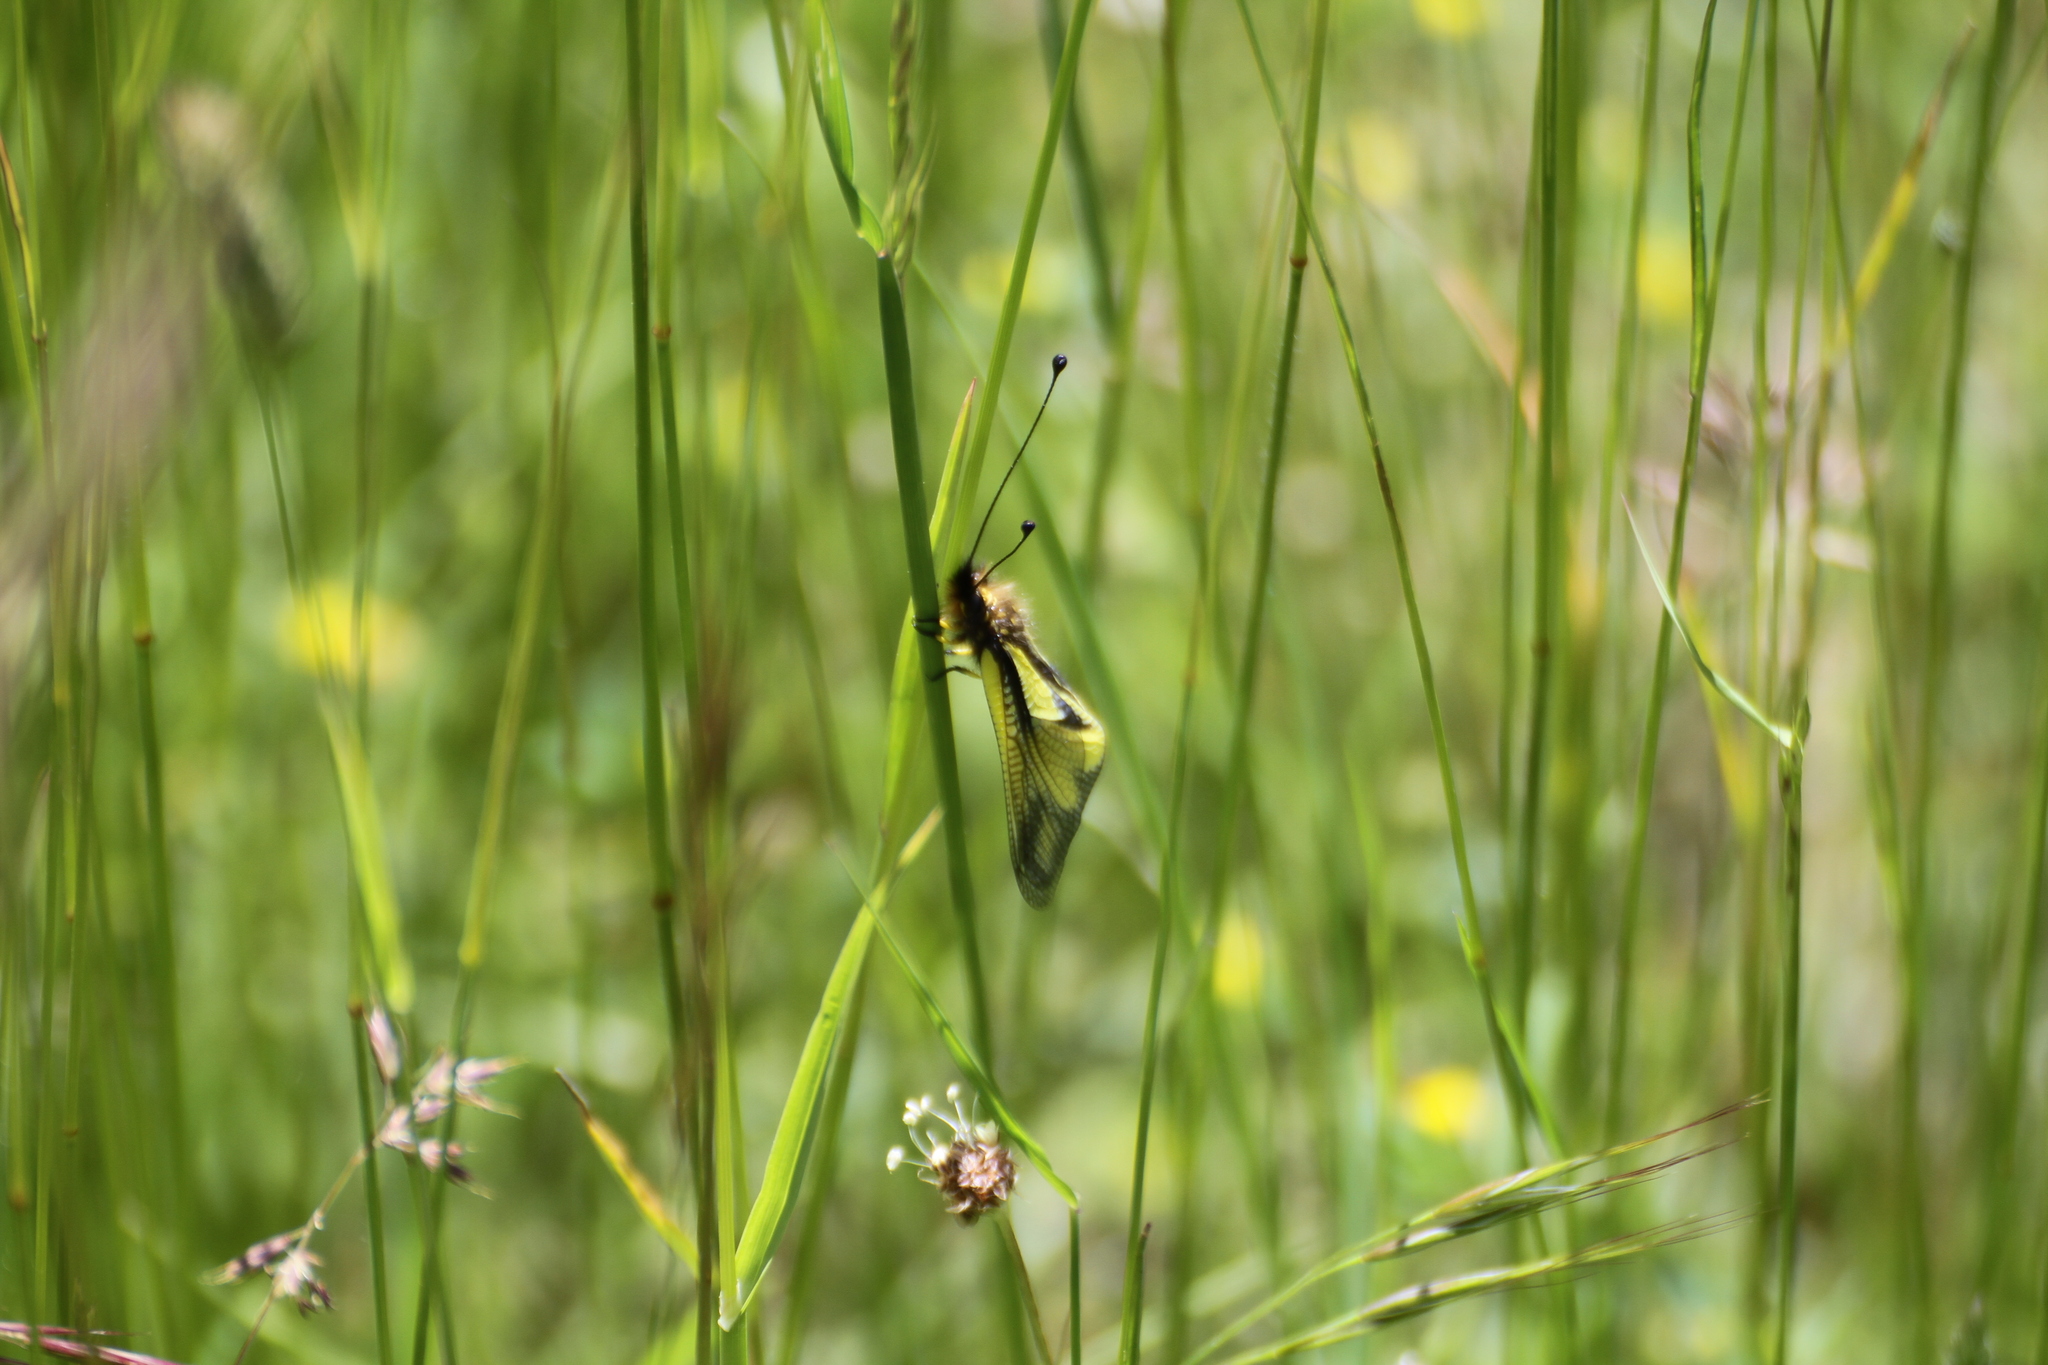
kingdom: Animalia
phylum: Arthropoda
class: Insecta
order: Neuroptera
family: Ascalaphidae
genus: Libelloides
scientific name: Libelloides coccajus
